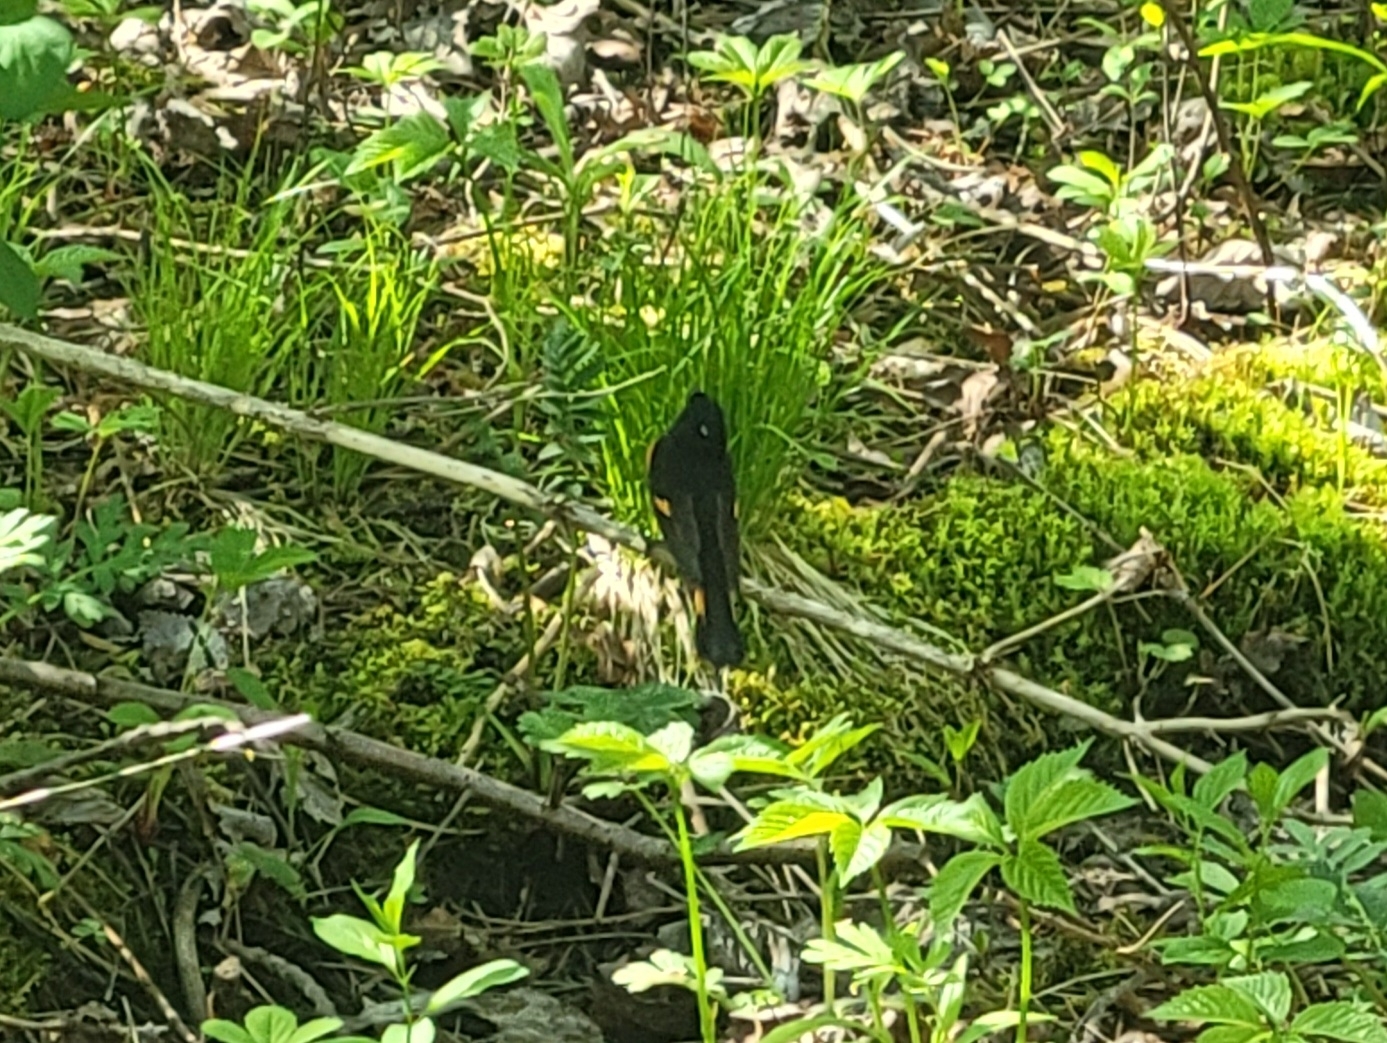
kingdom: Animalia
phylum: Chordata
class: Aves
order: Passeriformes
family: Parulidae
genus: Setophaga
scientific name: Setophaga ruticilla
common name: American redstart
